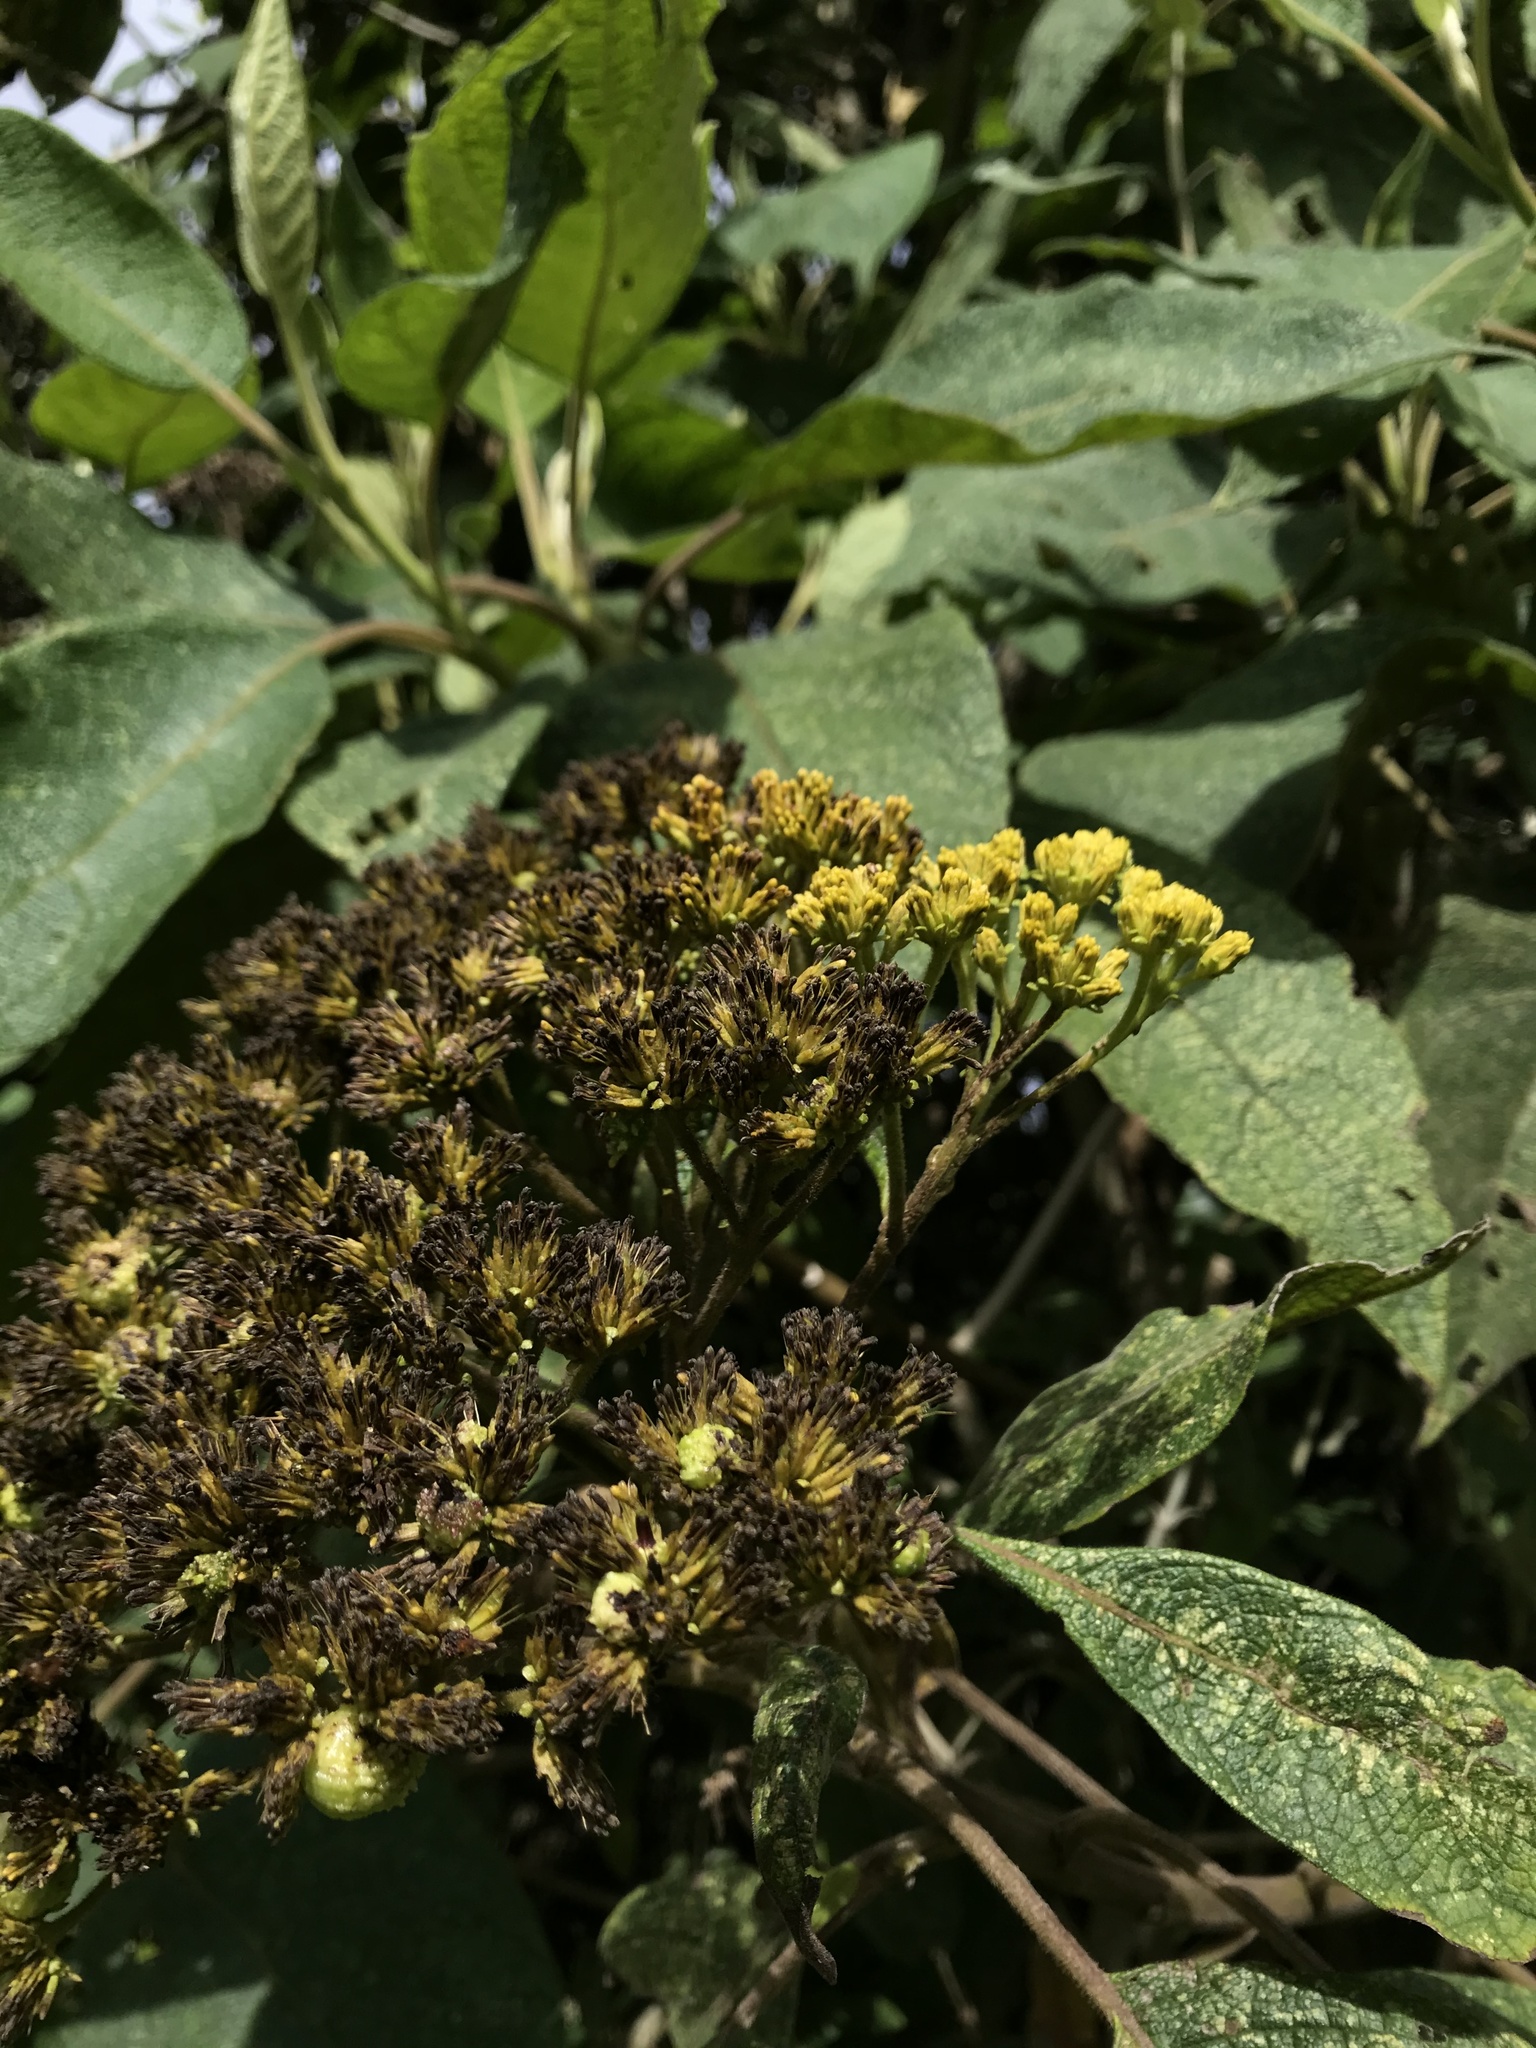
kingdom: Plantae
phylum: Tracheophyta
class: Magnoliopsida
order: Asterales
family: Asteraceae
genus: Verbesina
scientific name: Verbesina crassiramea
